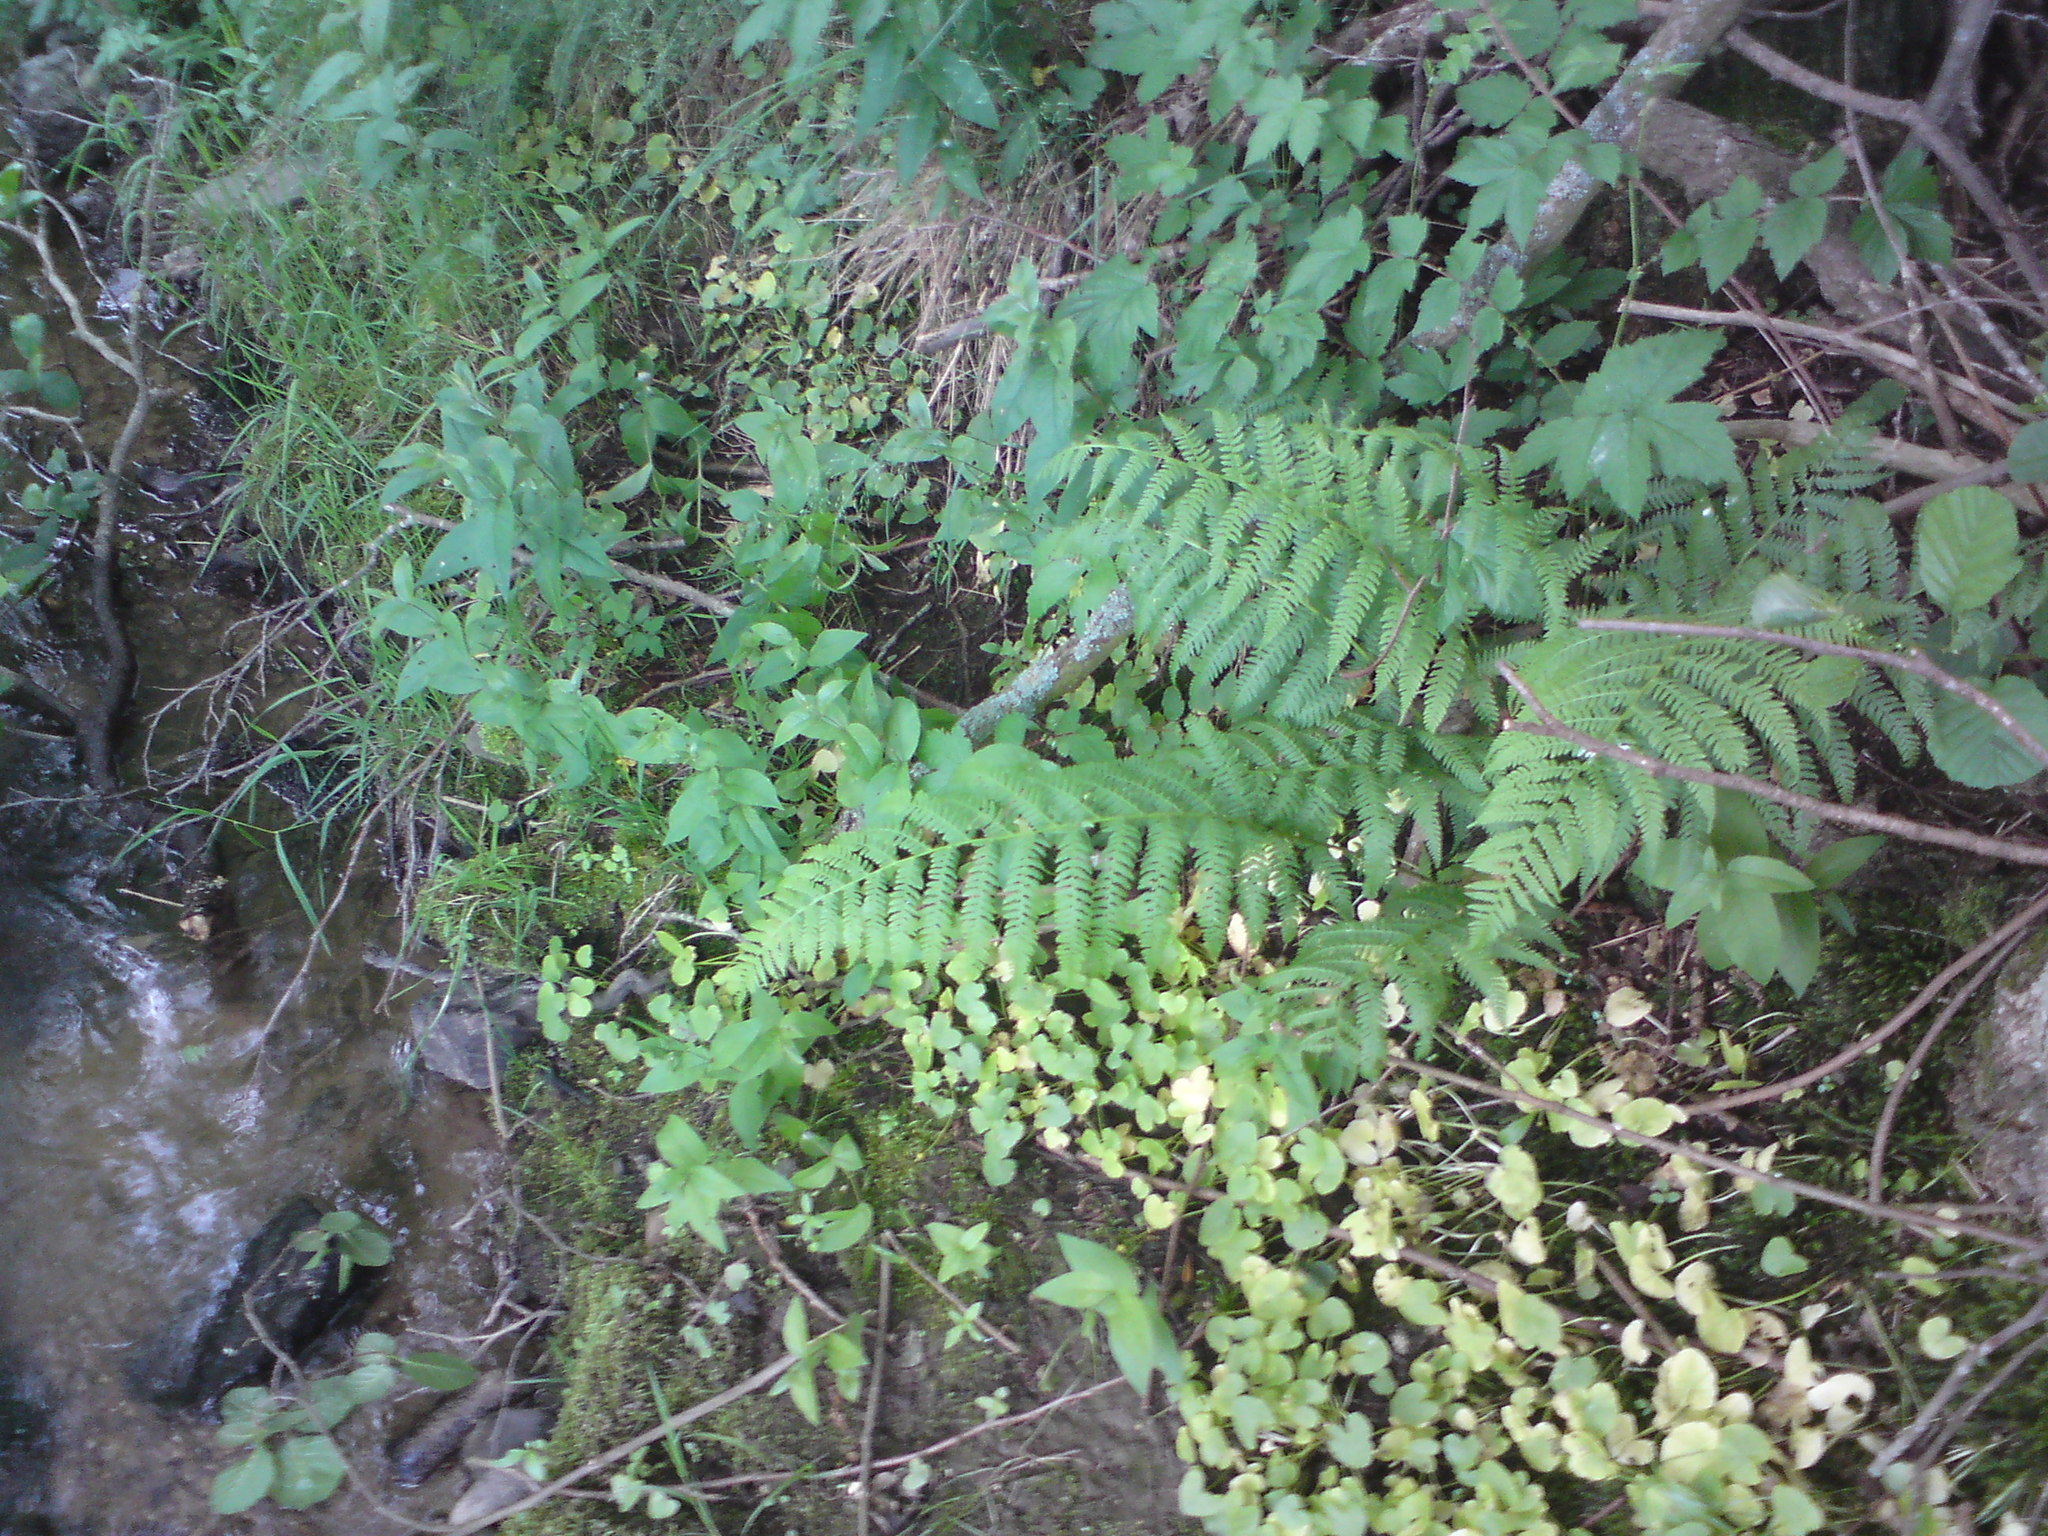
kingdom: Plantae
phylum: Tracheophyta
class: Polypodiopsida
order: Polypodiales
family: Athyriaceae
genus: Athyrium
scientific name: Athyrium filix-femina
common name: Lady fern
